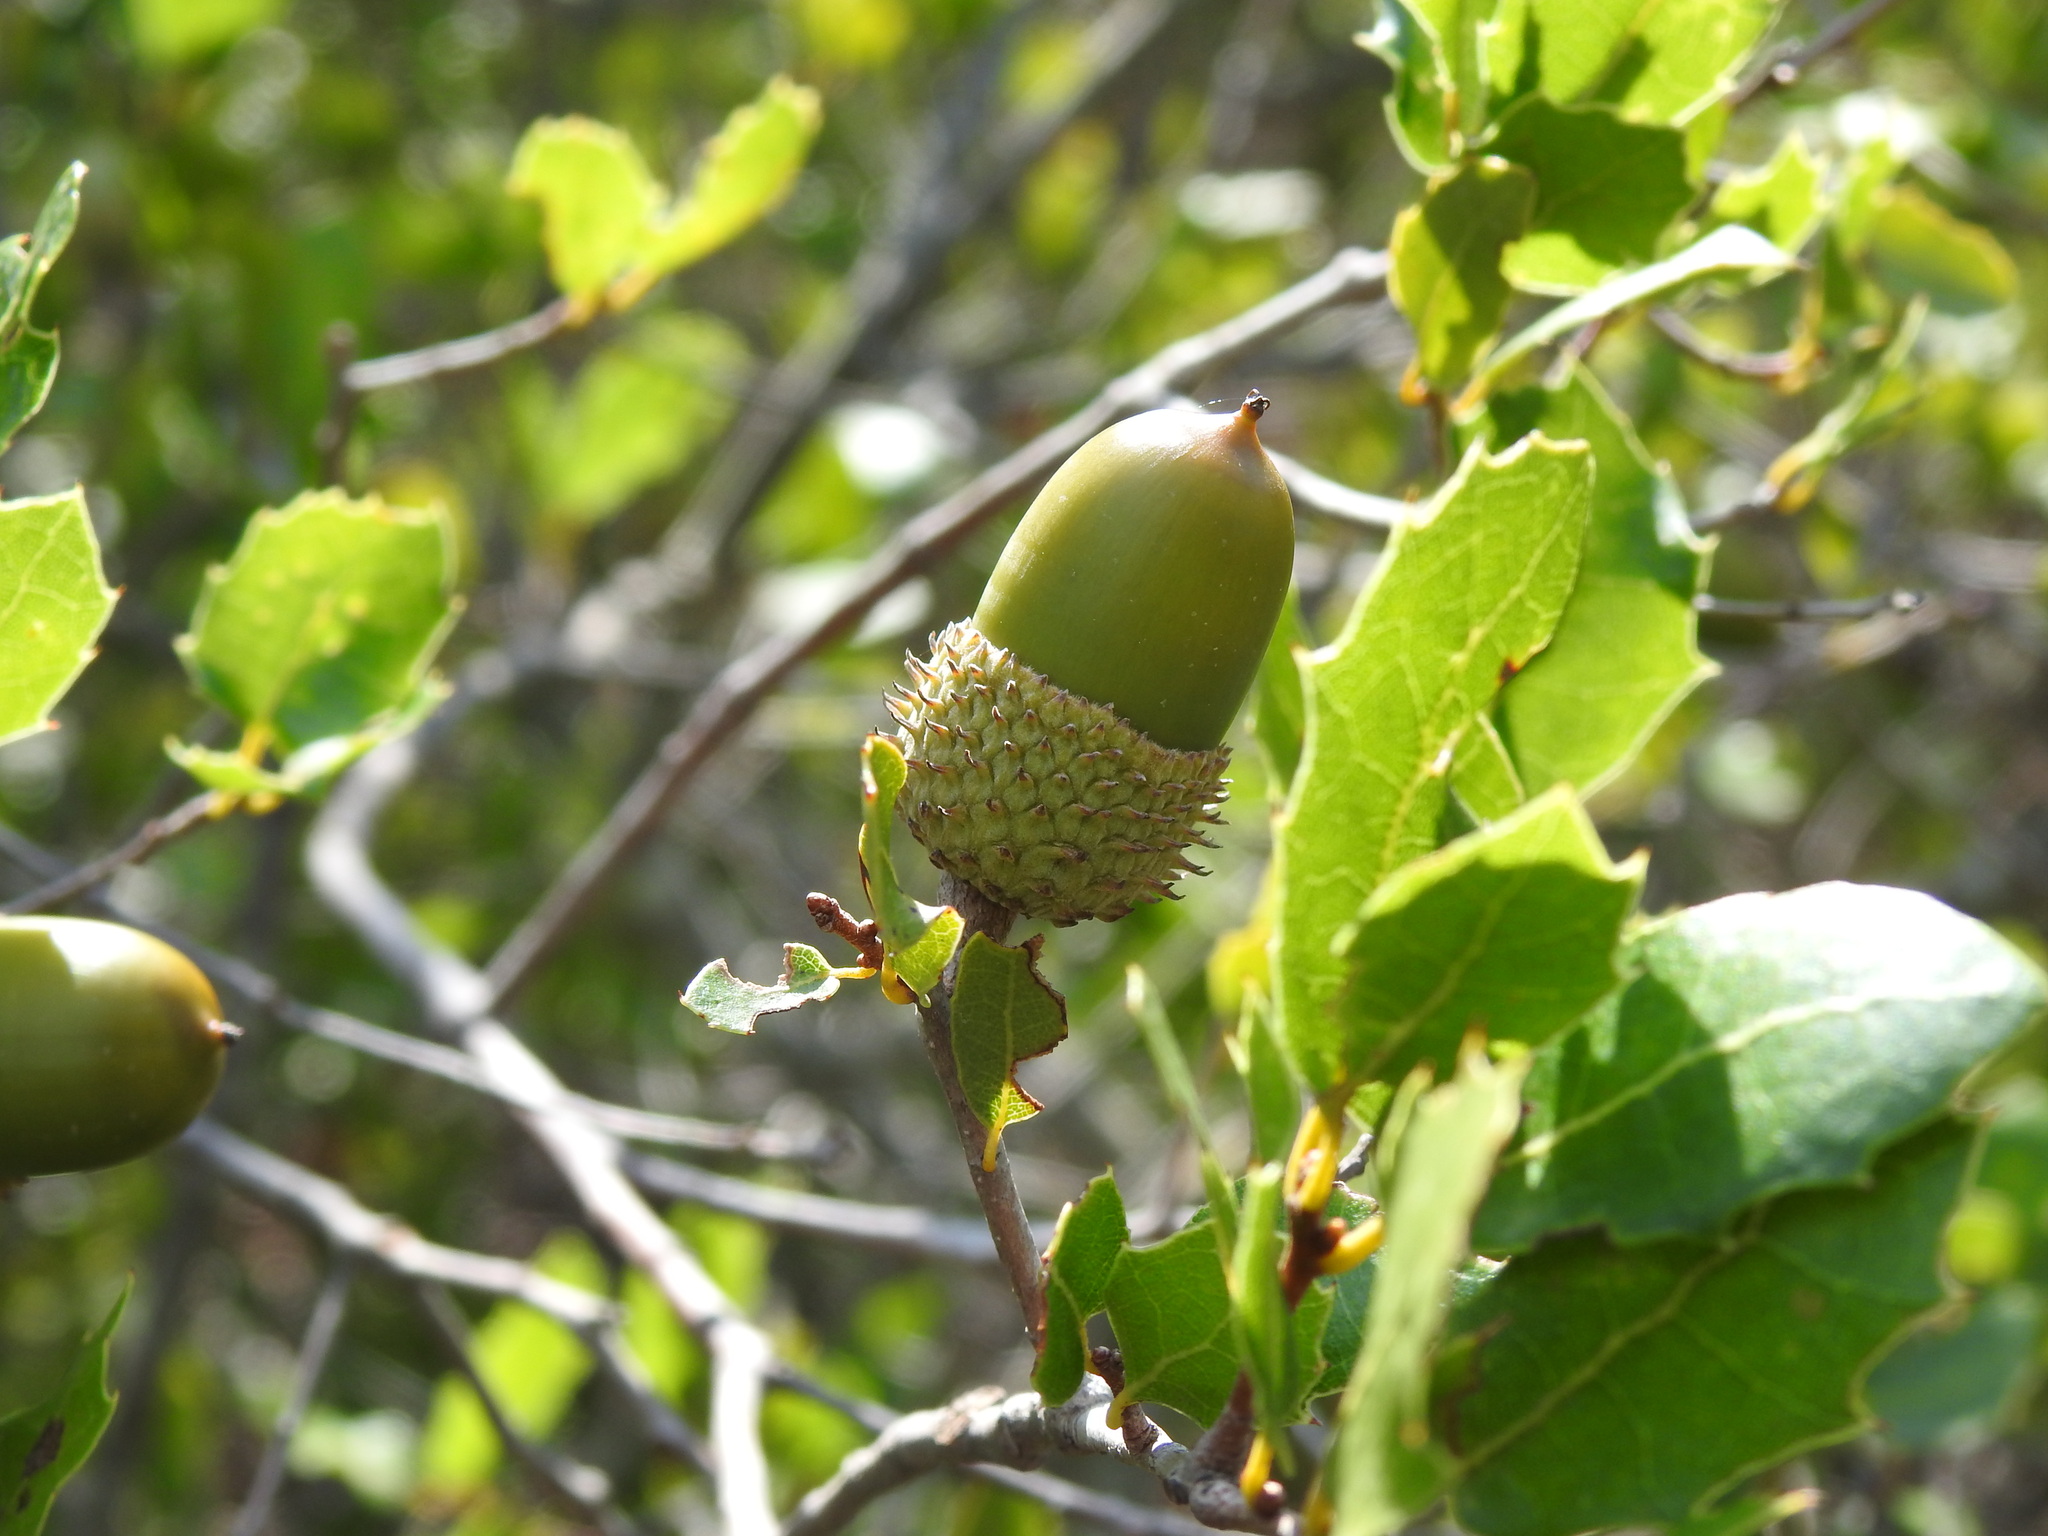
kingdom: Plantae
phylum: Tracheophyta
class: Magnoliopsida
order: Fagales
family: Fagaceae
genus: Quercus
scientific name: Quercus coccifera
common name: Kermes oak
